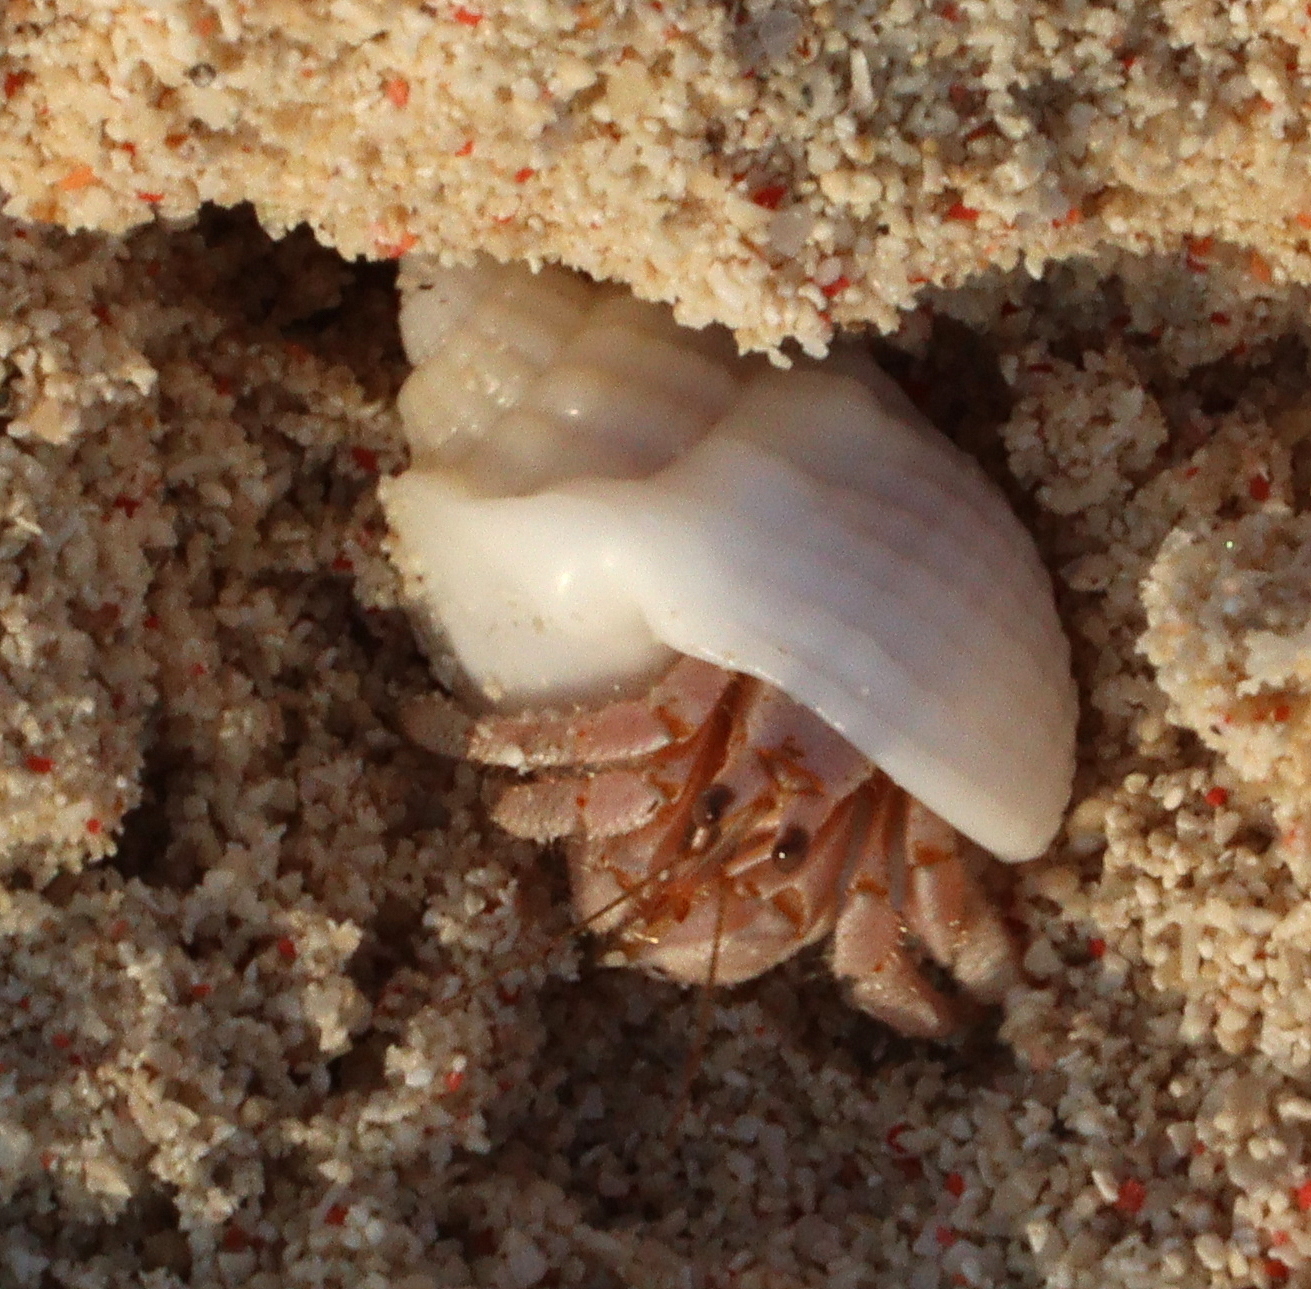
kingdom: Animalia
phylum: Arthropoda
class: Malacostraca
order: Decapoda
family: Coenobitidae
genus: Coenobita
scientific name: Coenobita scaevola
